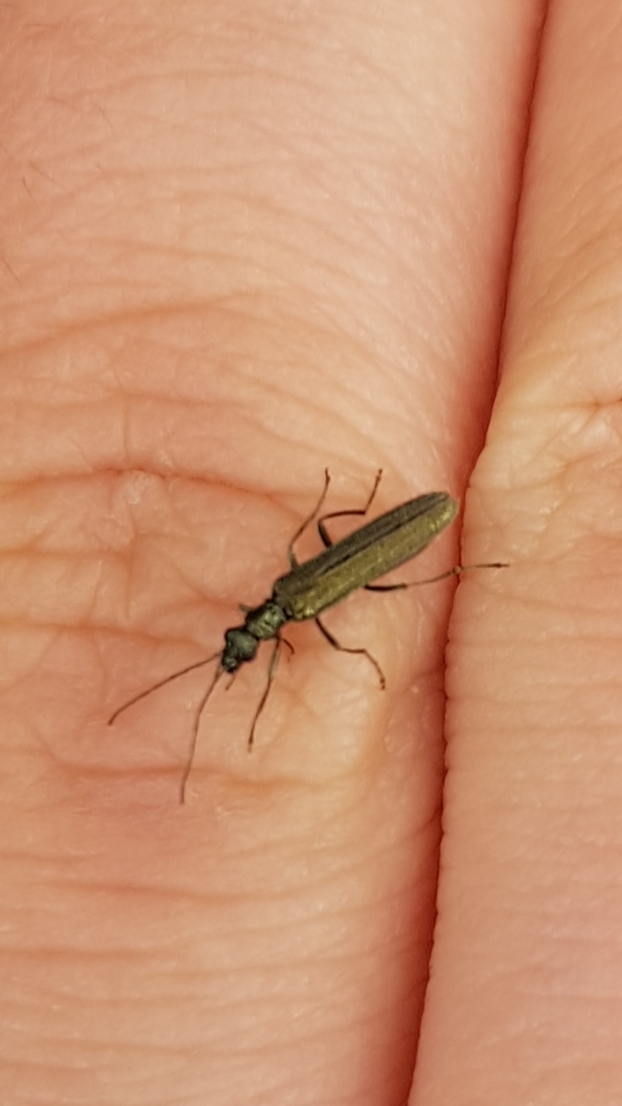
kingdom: Animalia
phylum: Arthropoda
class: Insecta
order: Coleoptera
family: Oedemeridae
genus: Oedemera
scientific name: Oedemera lurida
